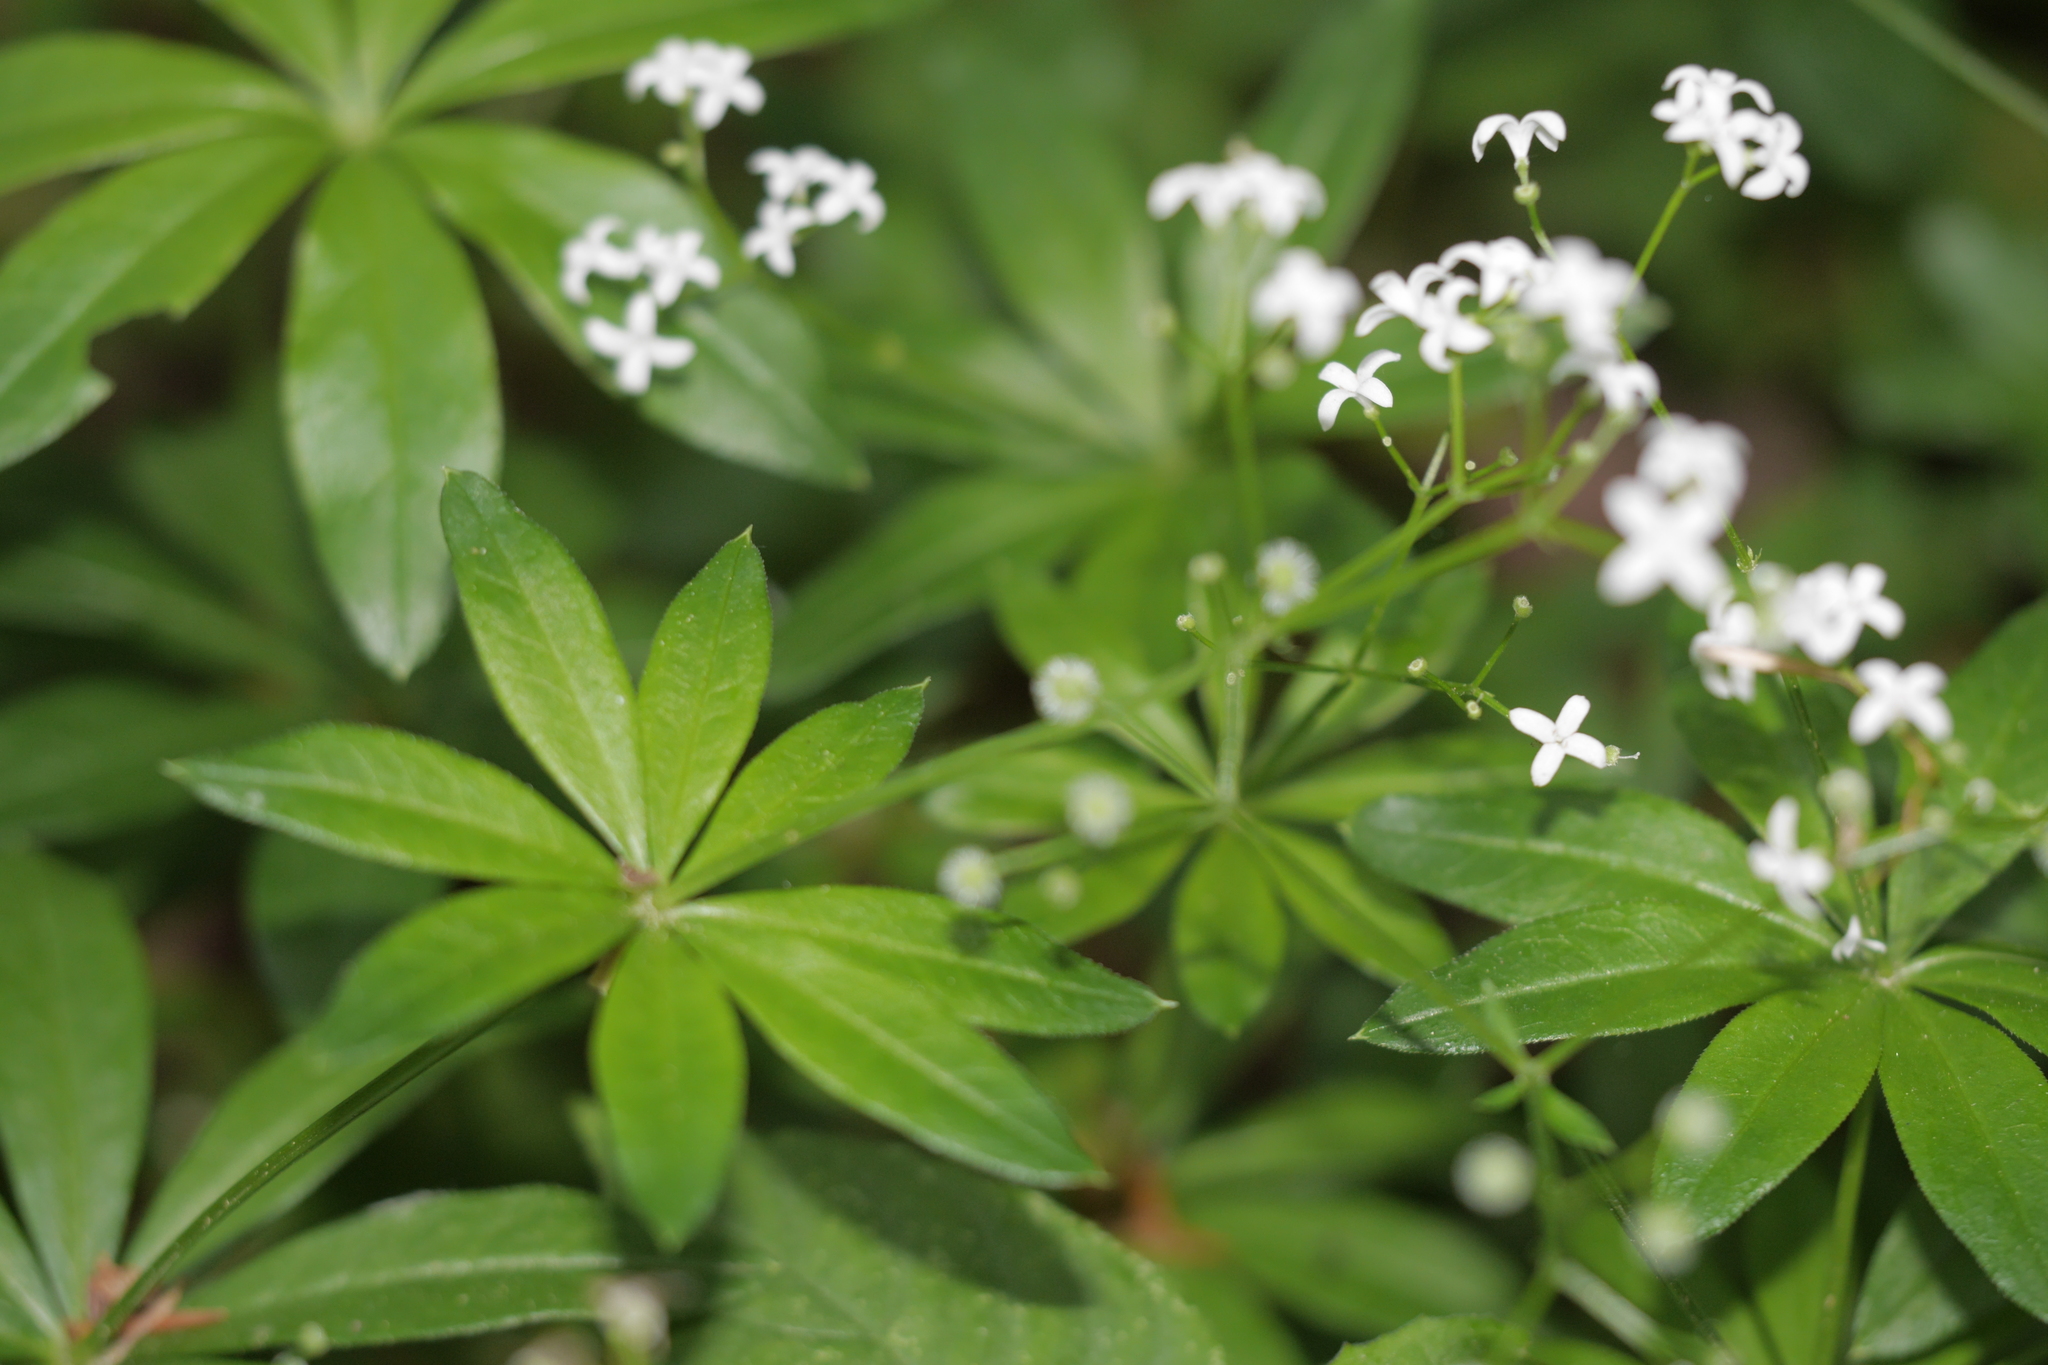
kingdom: Plantae
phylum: Tracheophyta
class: Magnoliopsida
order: Gentianales
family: Rubiaceae
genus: Galium
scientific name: Galium odoratum
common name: Sweet woodruff
